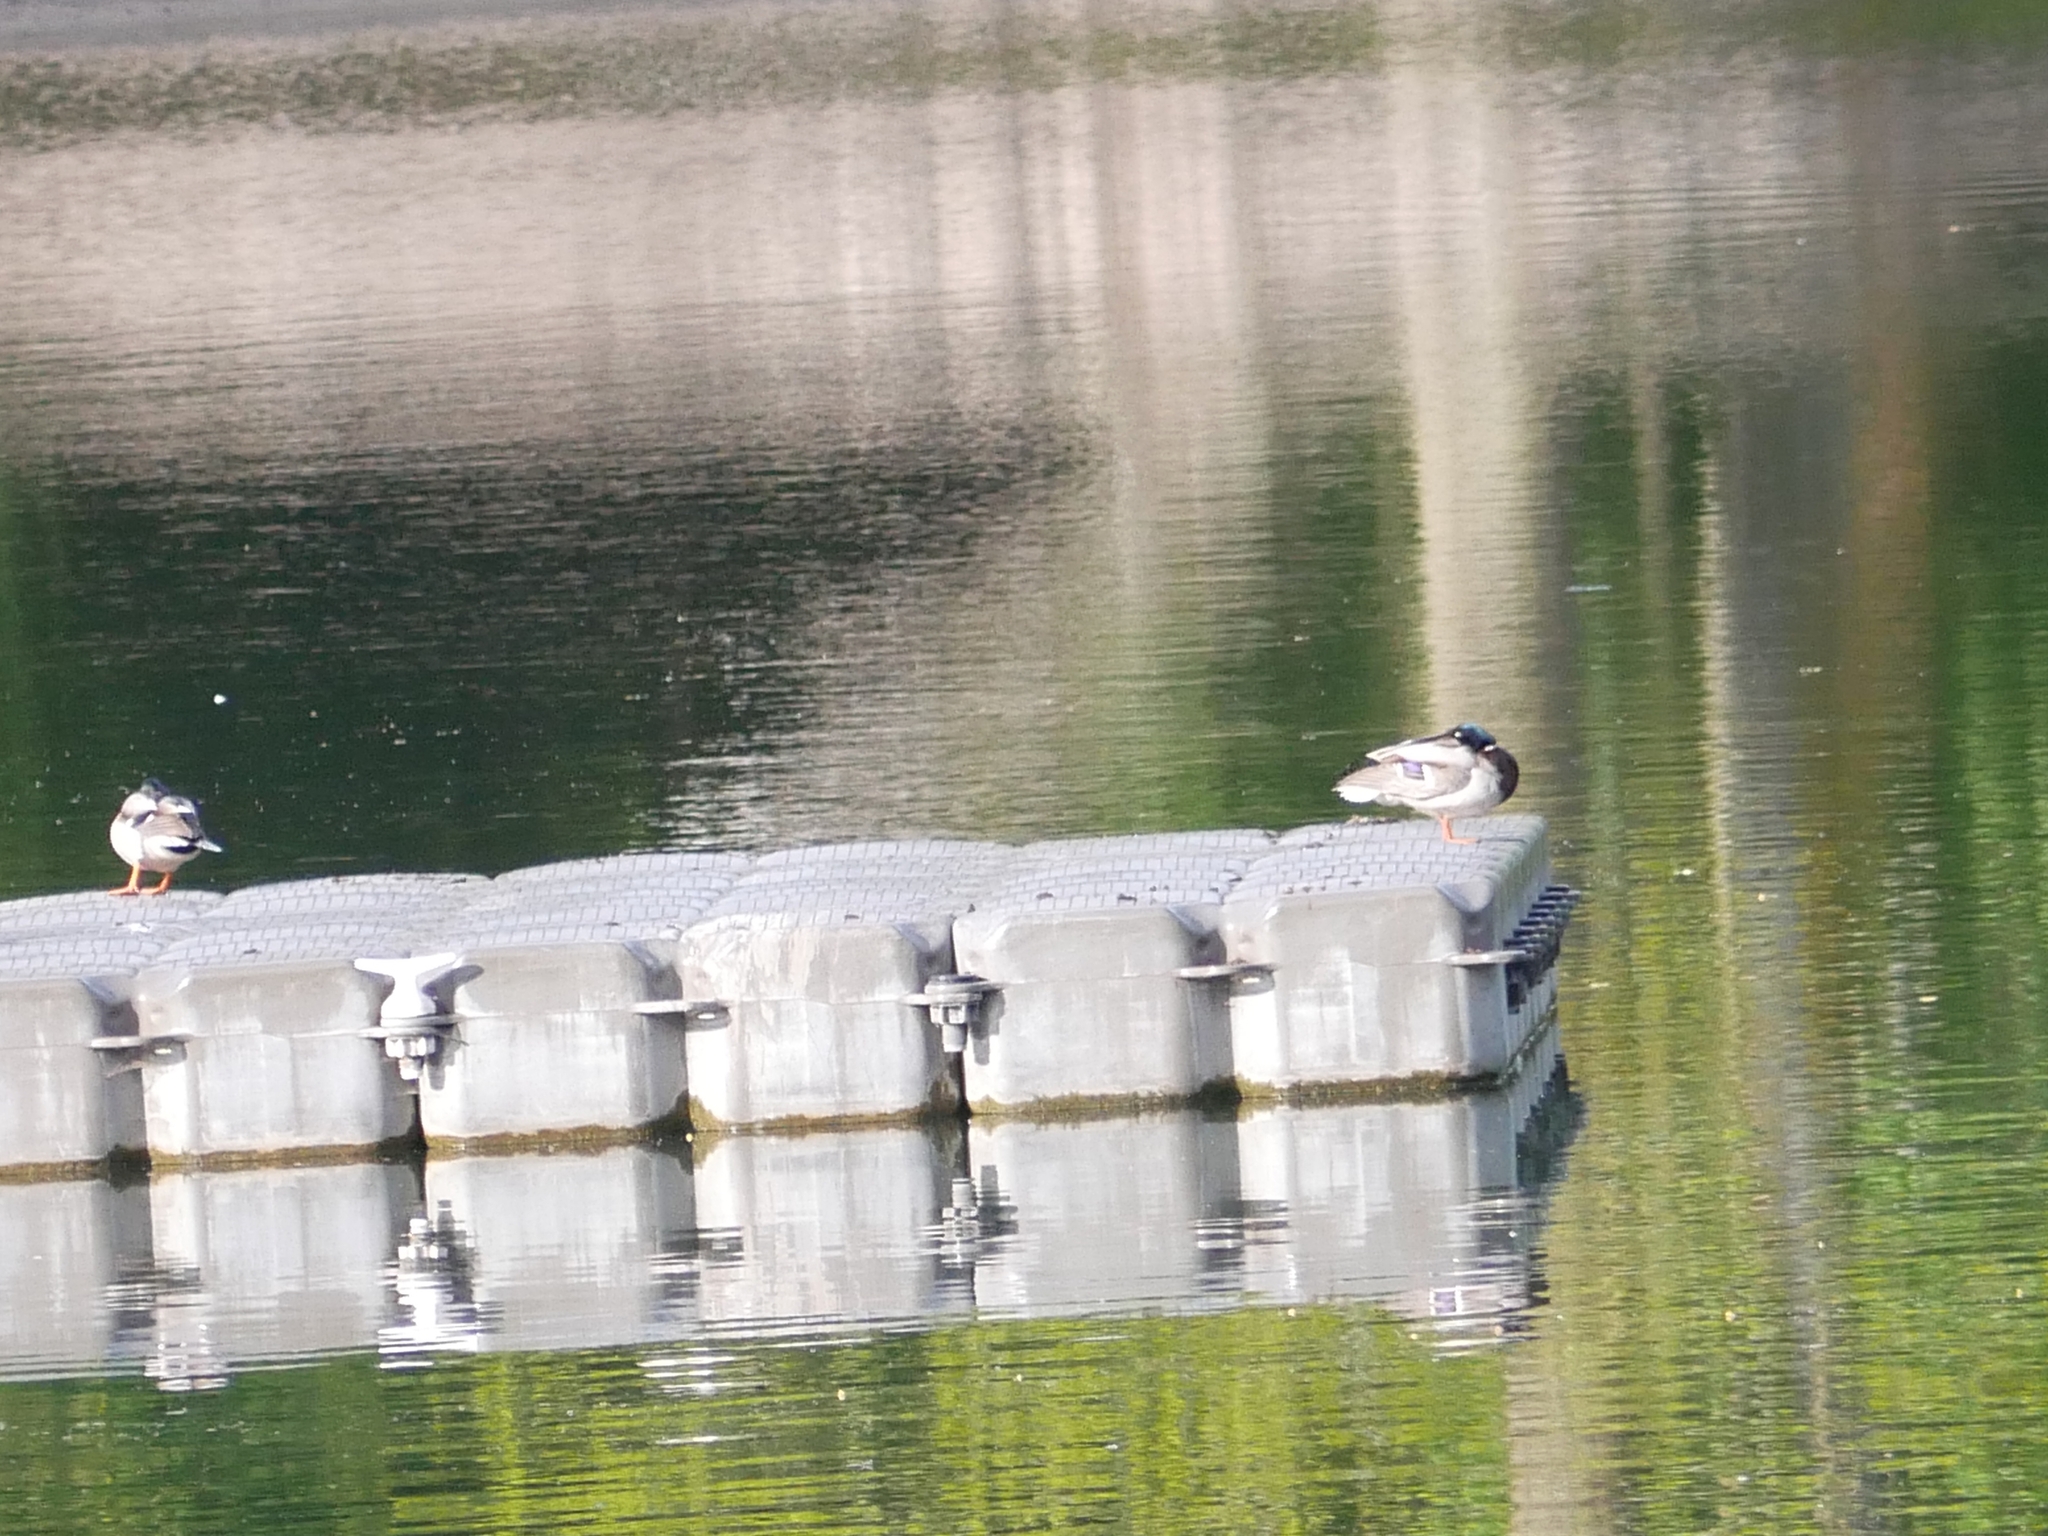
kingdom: Animalia
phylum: Chordata
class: Aves
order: Anseriformes
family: Anatidae
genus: Anas
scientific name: Anas platyrhynchos
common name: Mallard
